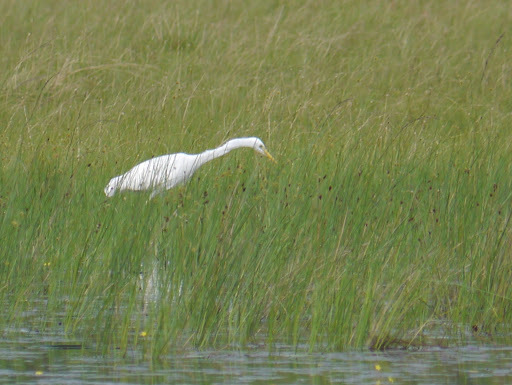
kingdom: Animalia
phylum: Chordata
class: Aves
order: Pelecaniformes
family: Ardeidae
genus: Egretta
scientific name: Egretta intermedia
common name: Intermediate egret
